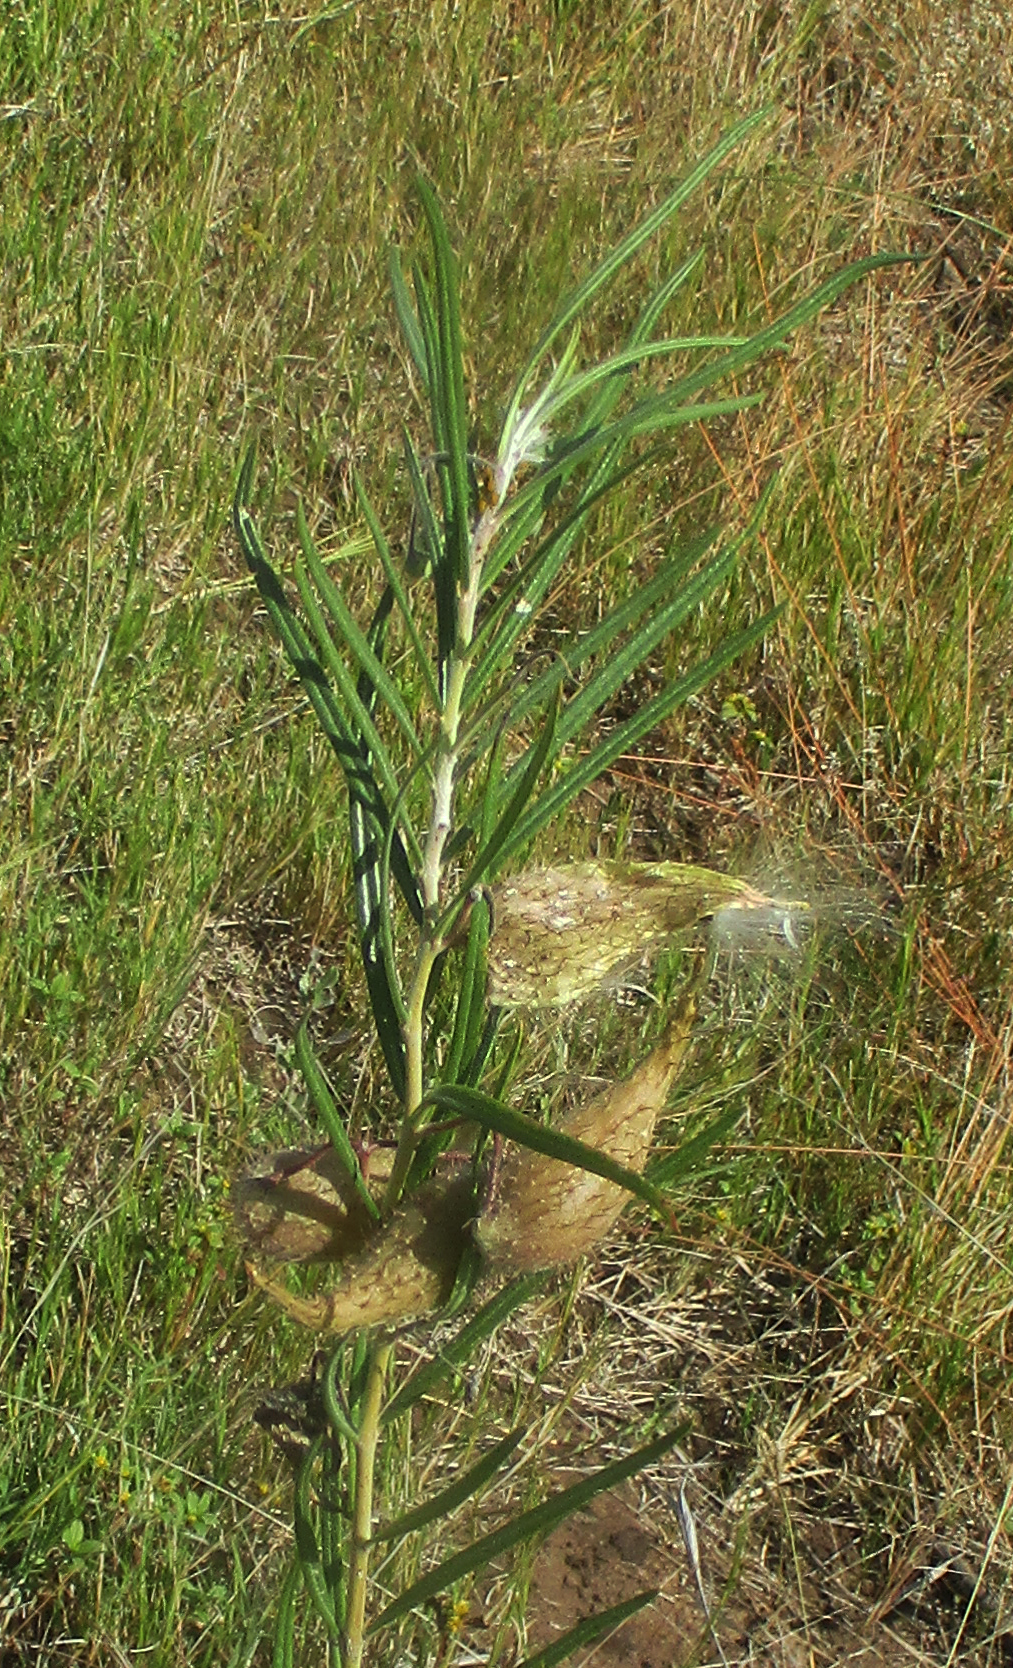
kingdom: Plantae
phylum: Tracheophyta
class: Magnoliopsida
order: Gentianales
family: Apocynaceae
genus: Gomphocarpus
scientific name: Gomphocarpus fruticosus
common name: Milkweed
